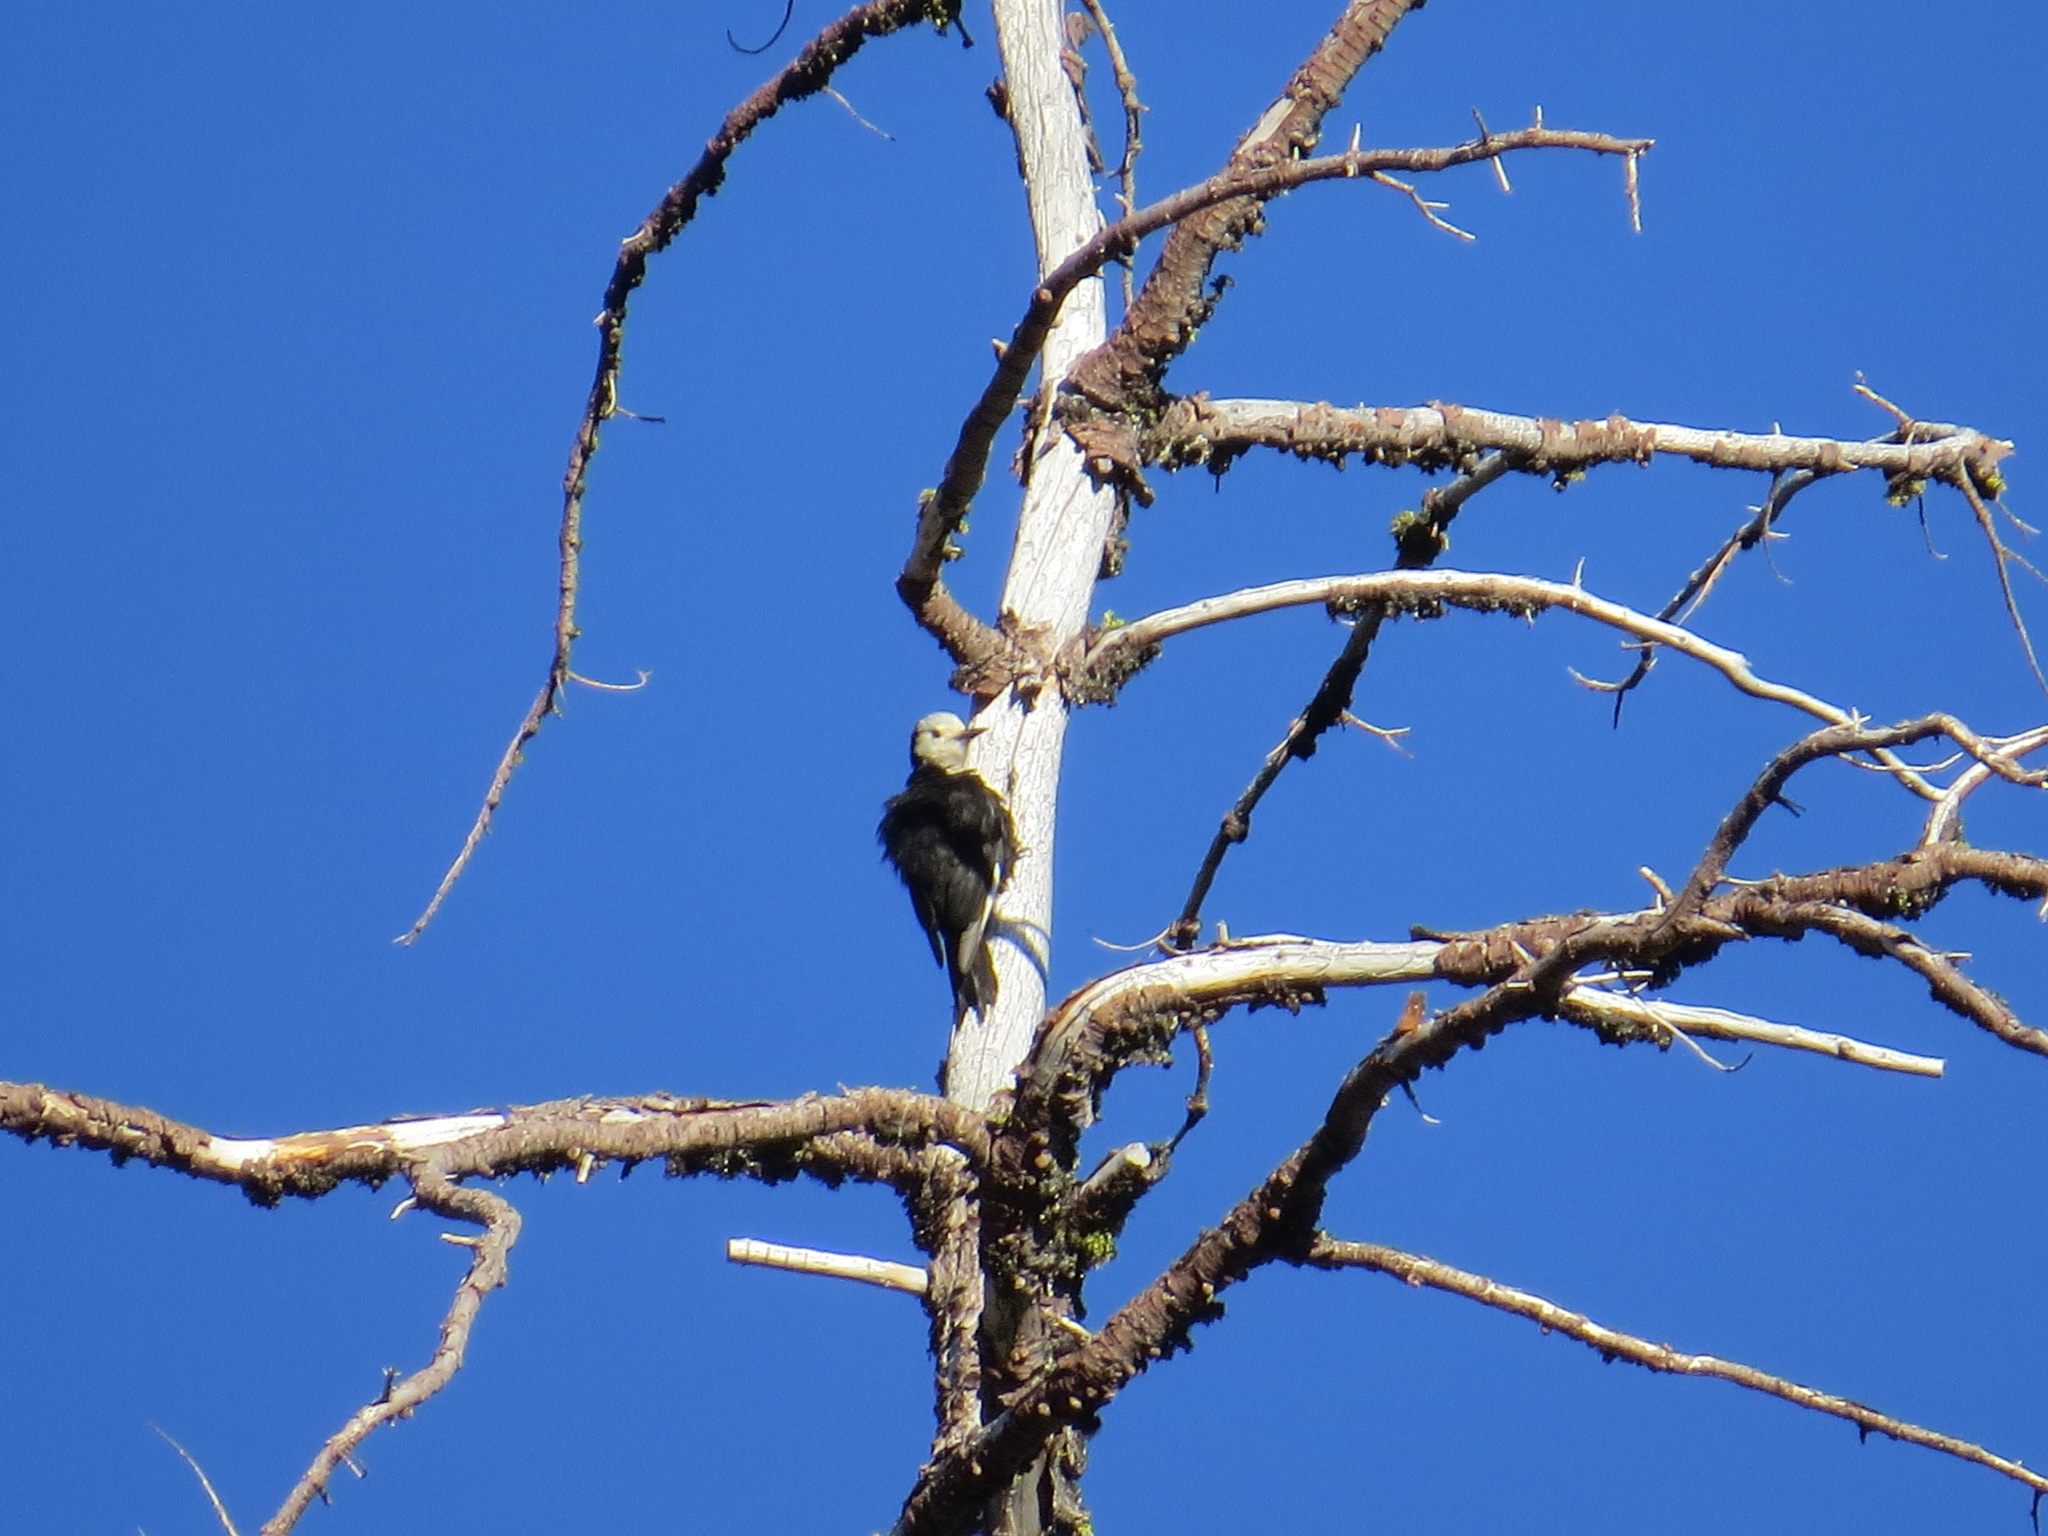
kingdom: Animalia
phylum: Chordata
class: Aves
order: Piciformes
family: Picidae
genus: Leuconotopicus
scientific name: Leuconotopicus albolarvatus
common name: White-headed woodpecker
